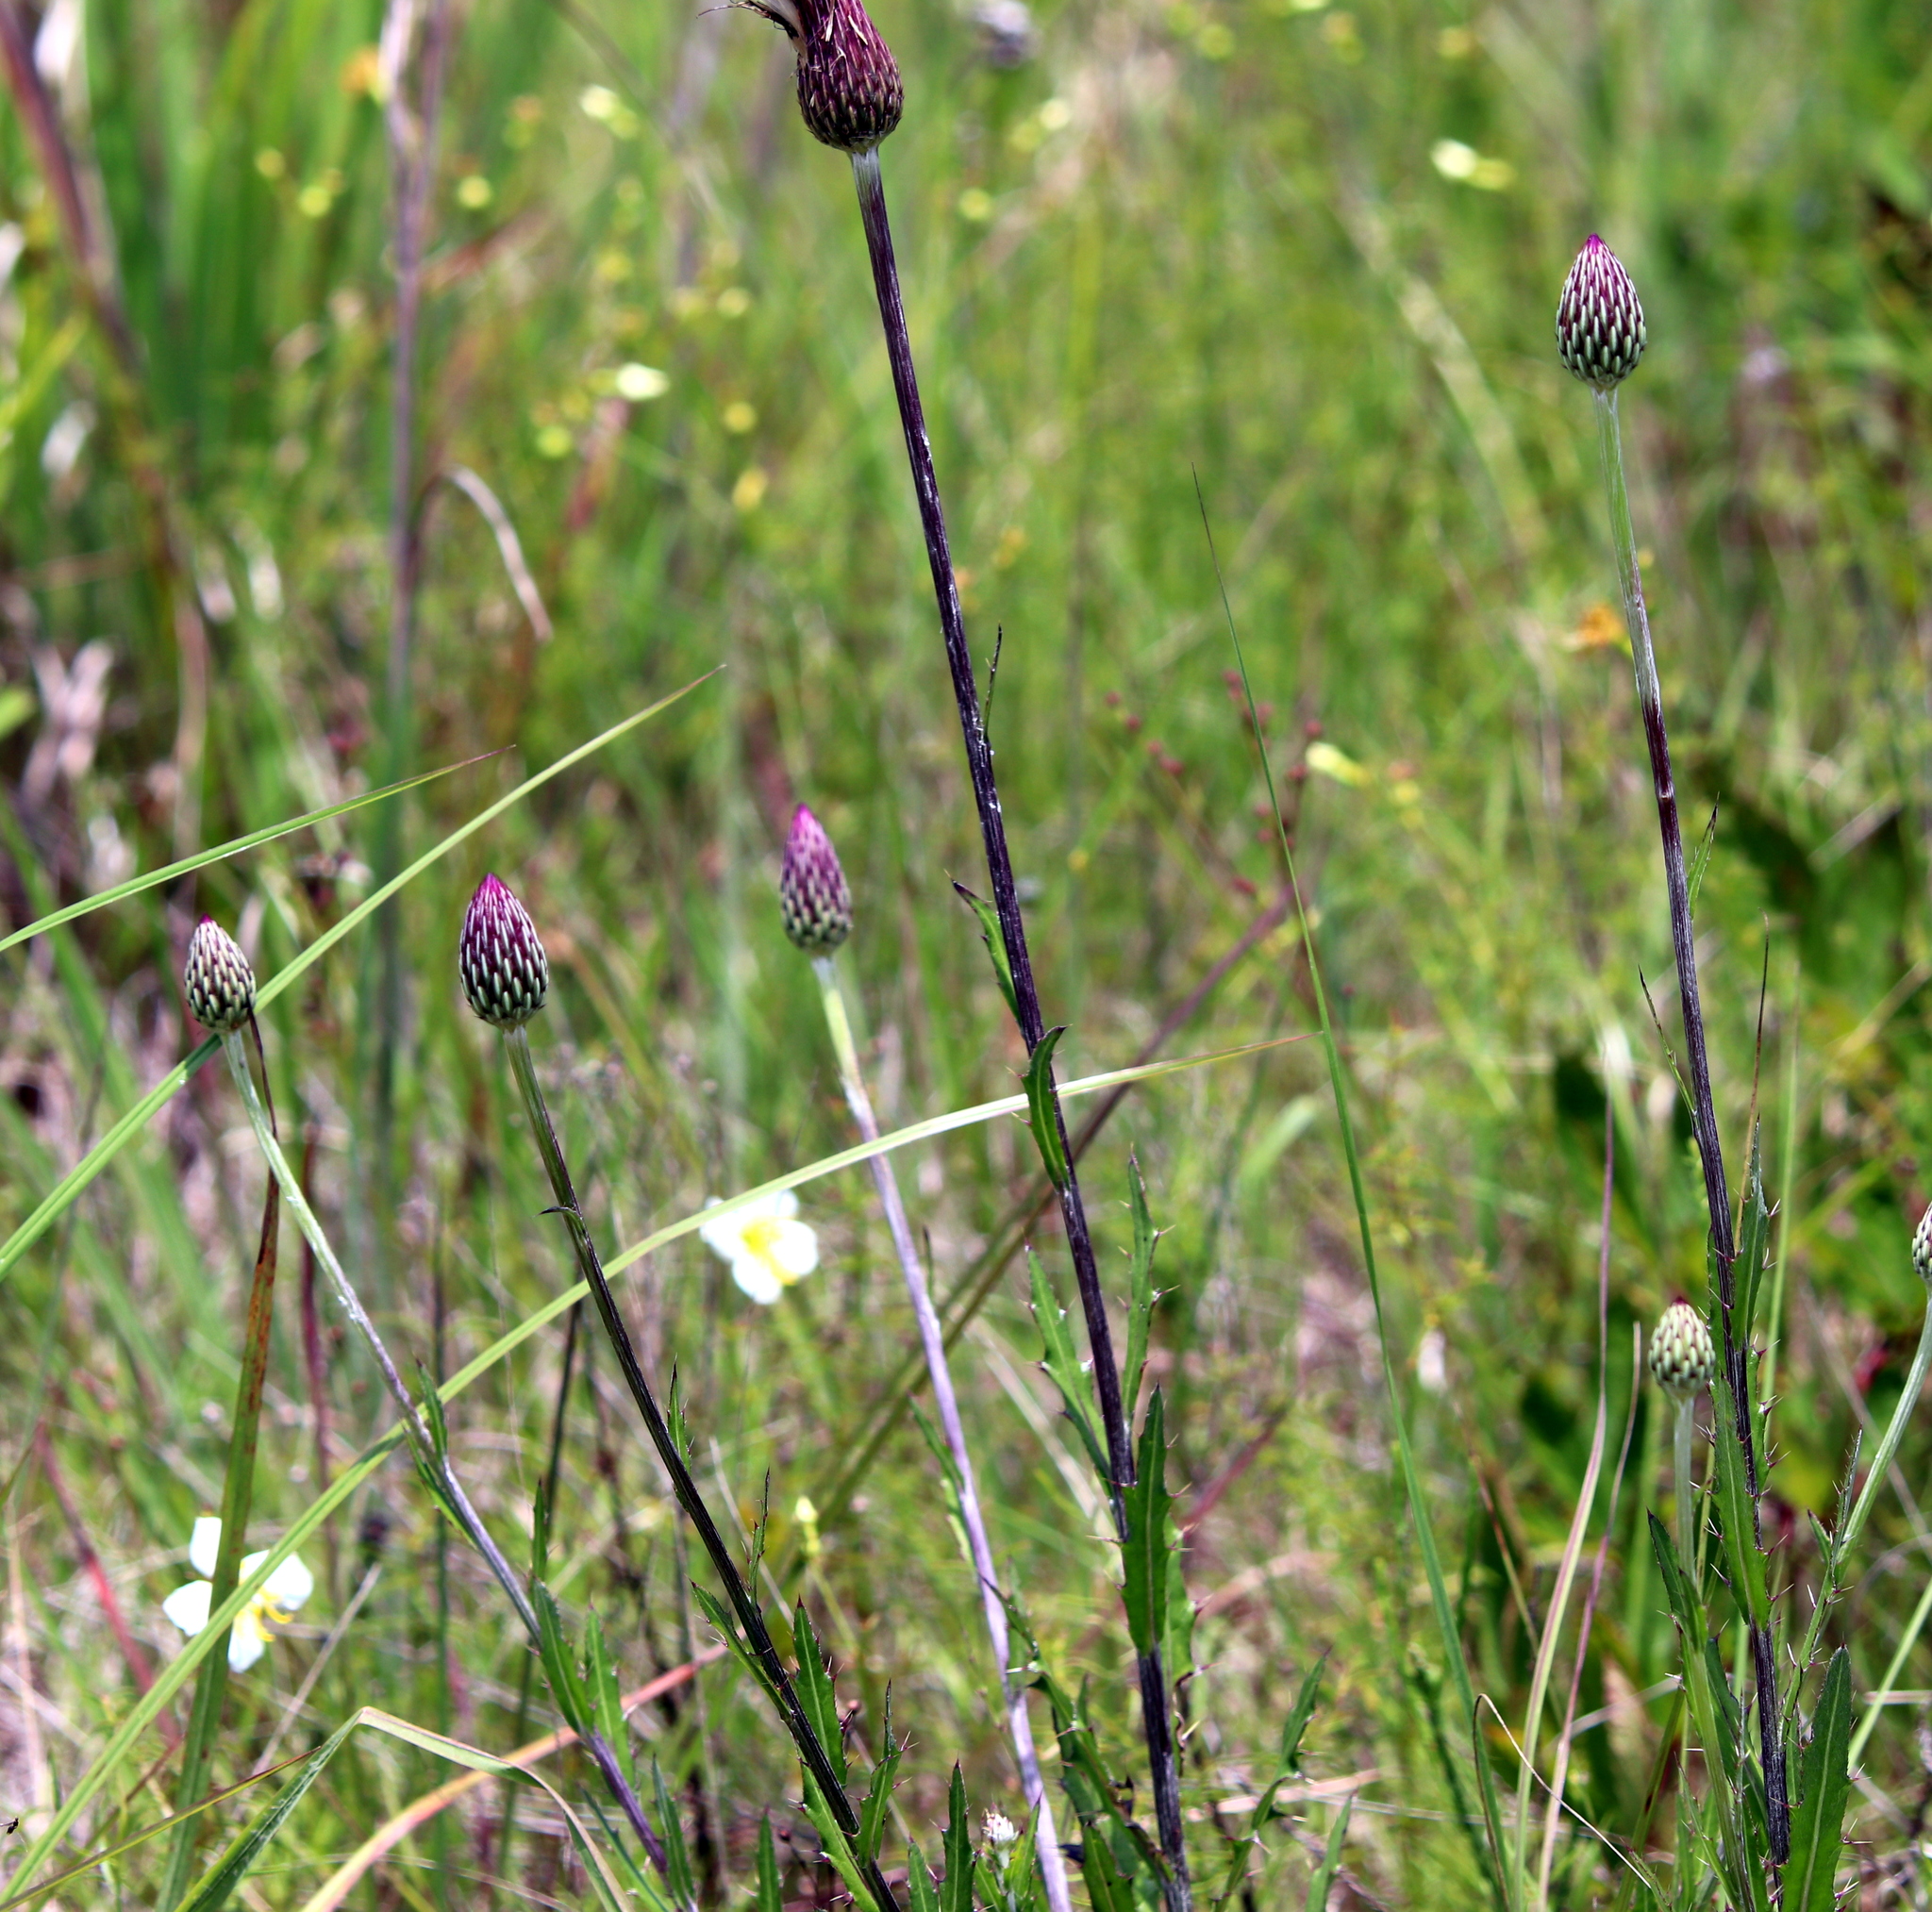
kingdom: Plantae
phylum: Tracheophyta
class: Magnoliopsida
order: Asterales
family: Asteraceae
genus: Cirsium
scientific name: Cirsium lecontei
